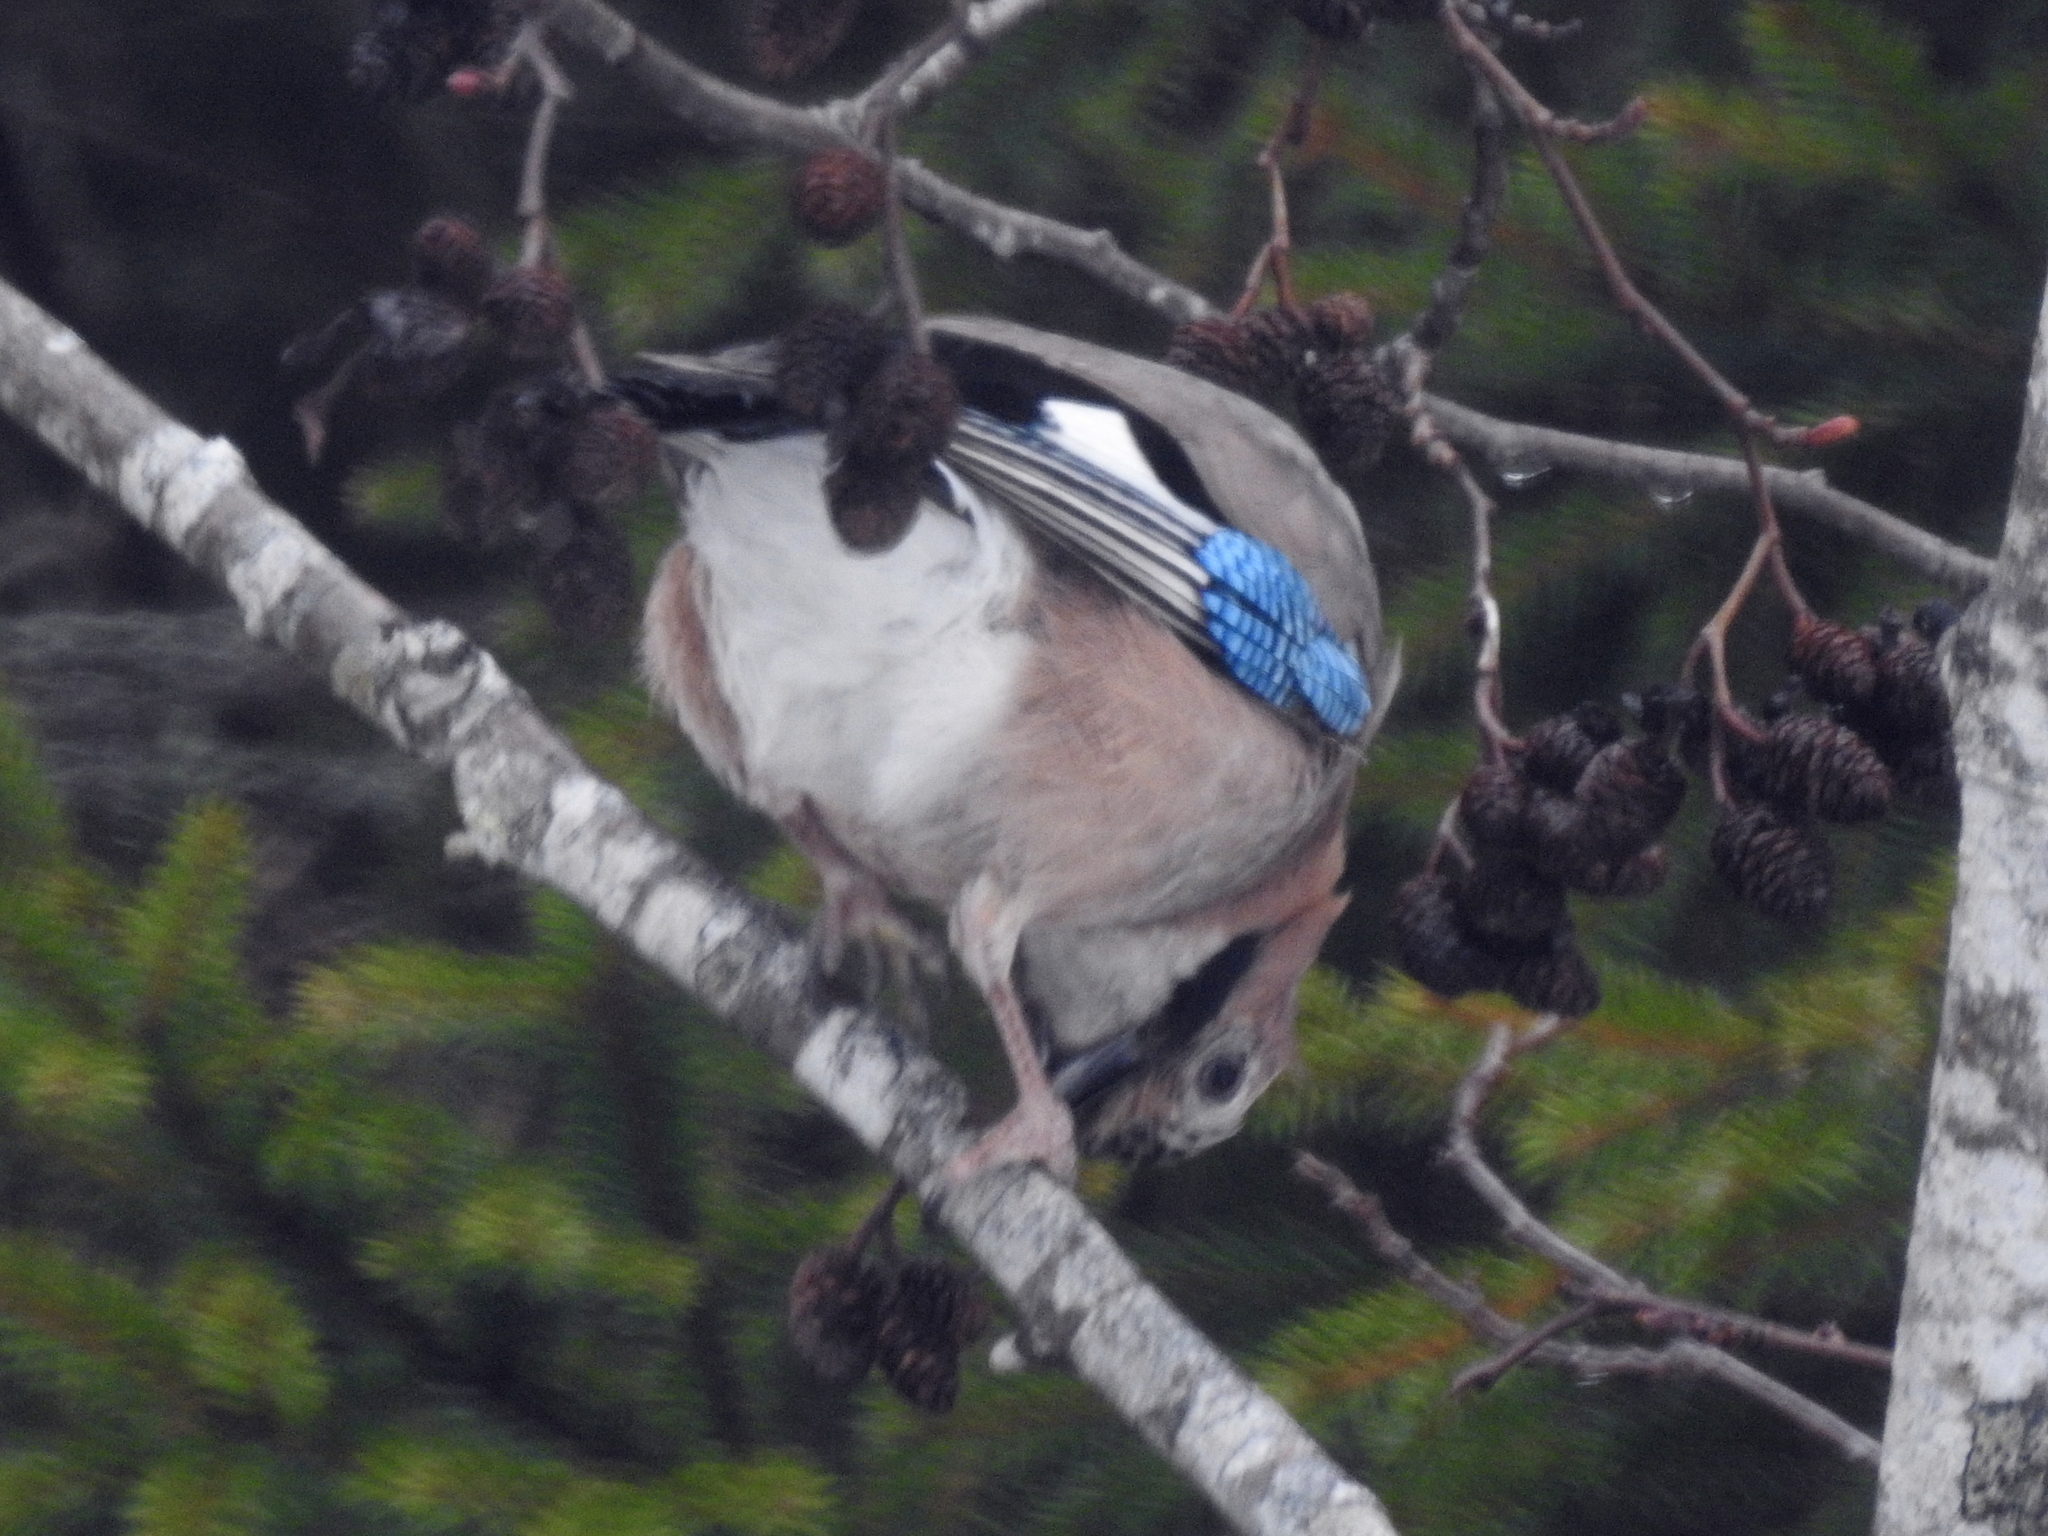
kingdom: Animalia
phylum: Chordata
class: Aves
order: Passeriformes
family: Corvidae
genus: Garrulus
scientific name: Garrulus glandarius
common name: Eurasian jay
